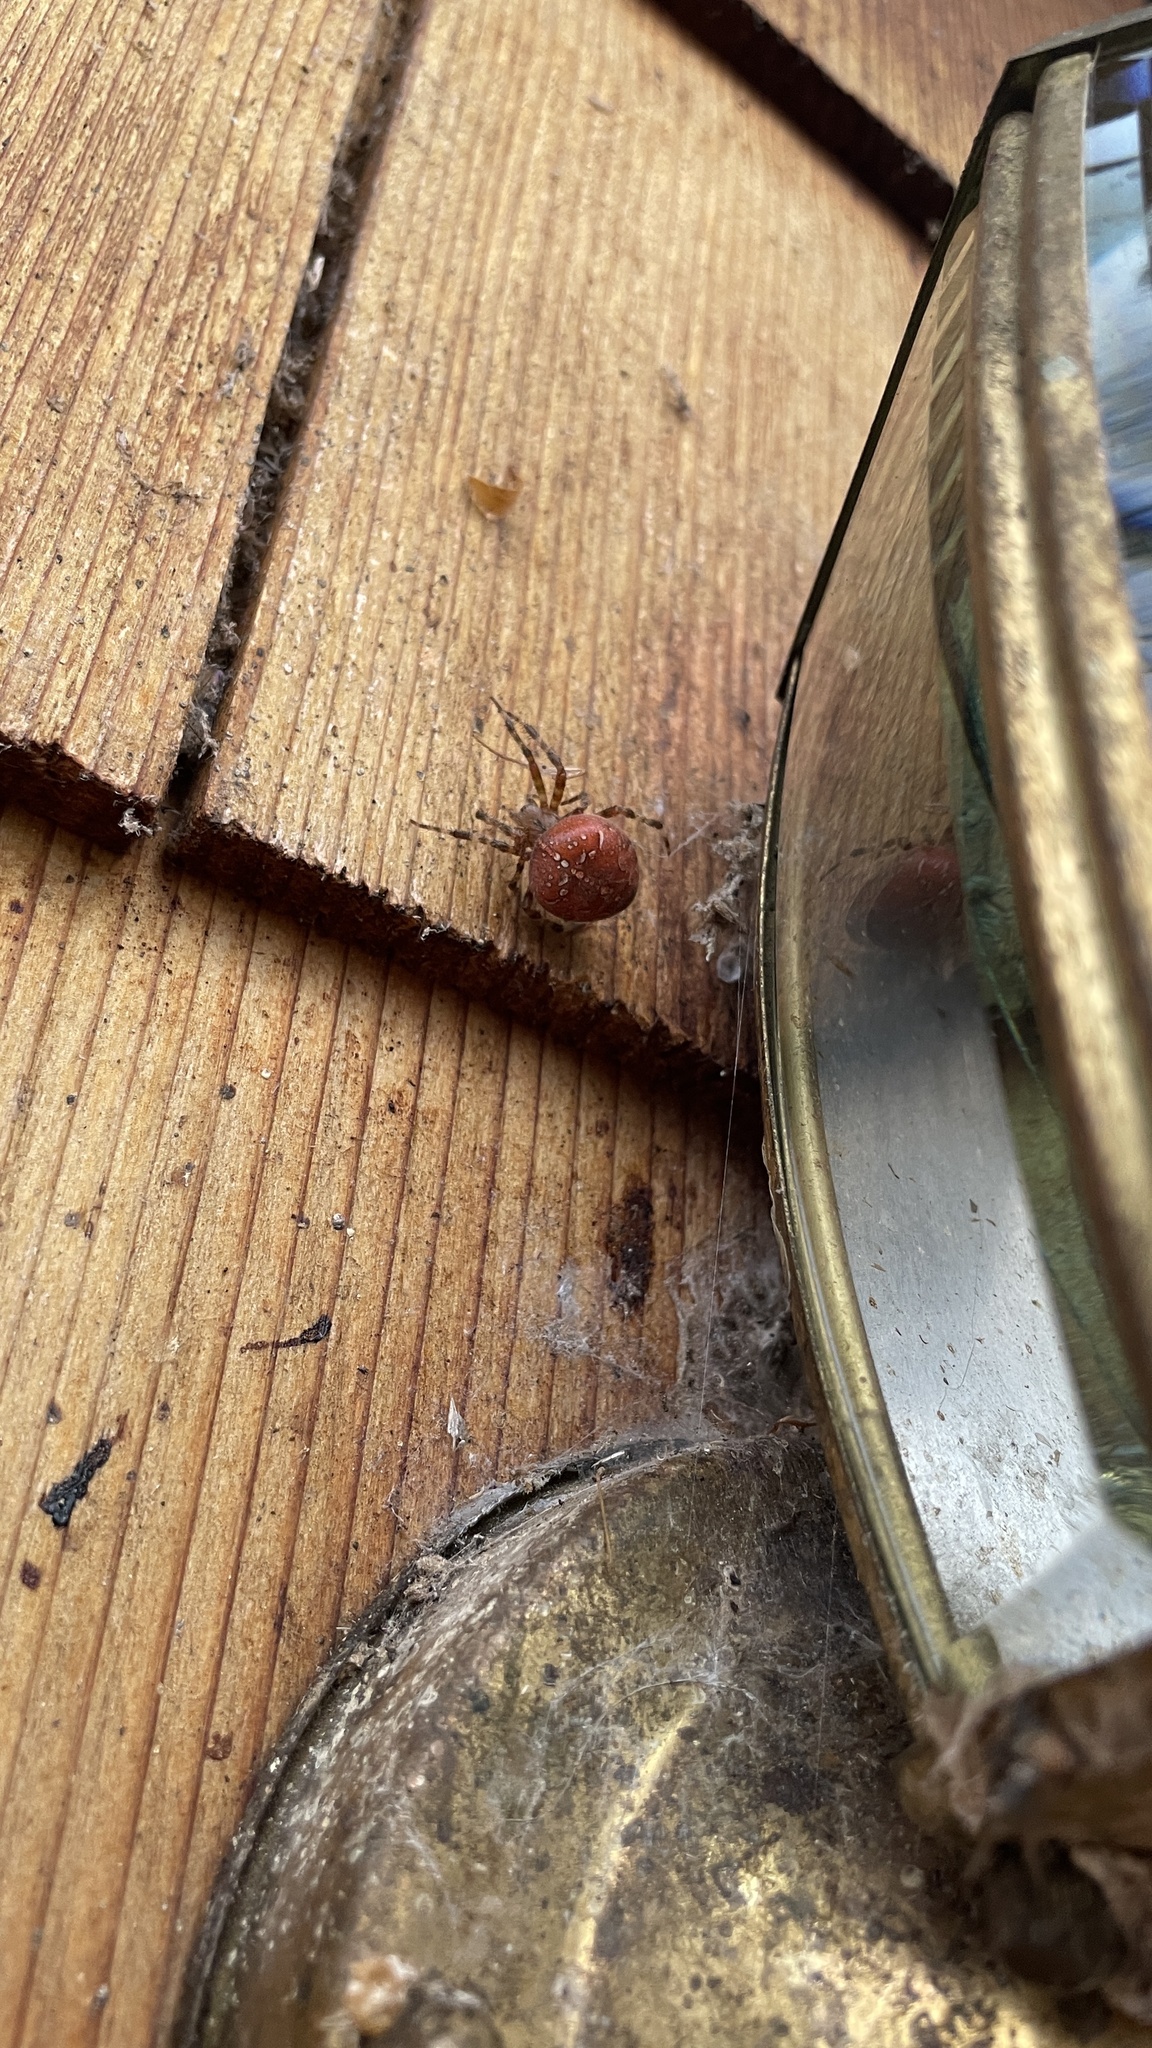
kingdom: Animalia
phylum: Arthropoda
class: Arachnida
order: Araneae
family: Araneidae
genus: Araneus
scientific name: Araneus diadematus
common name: Cross orbweaver
